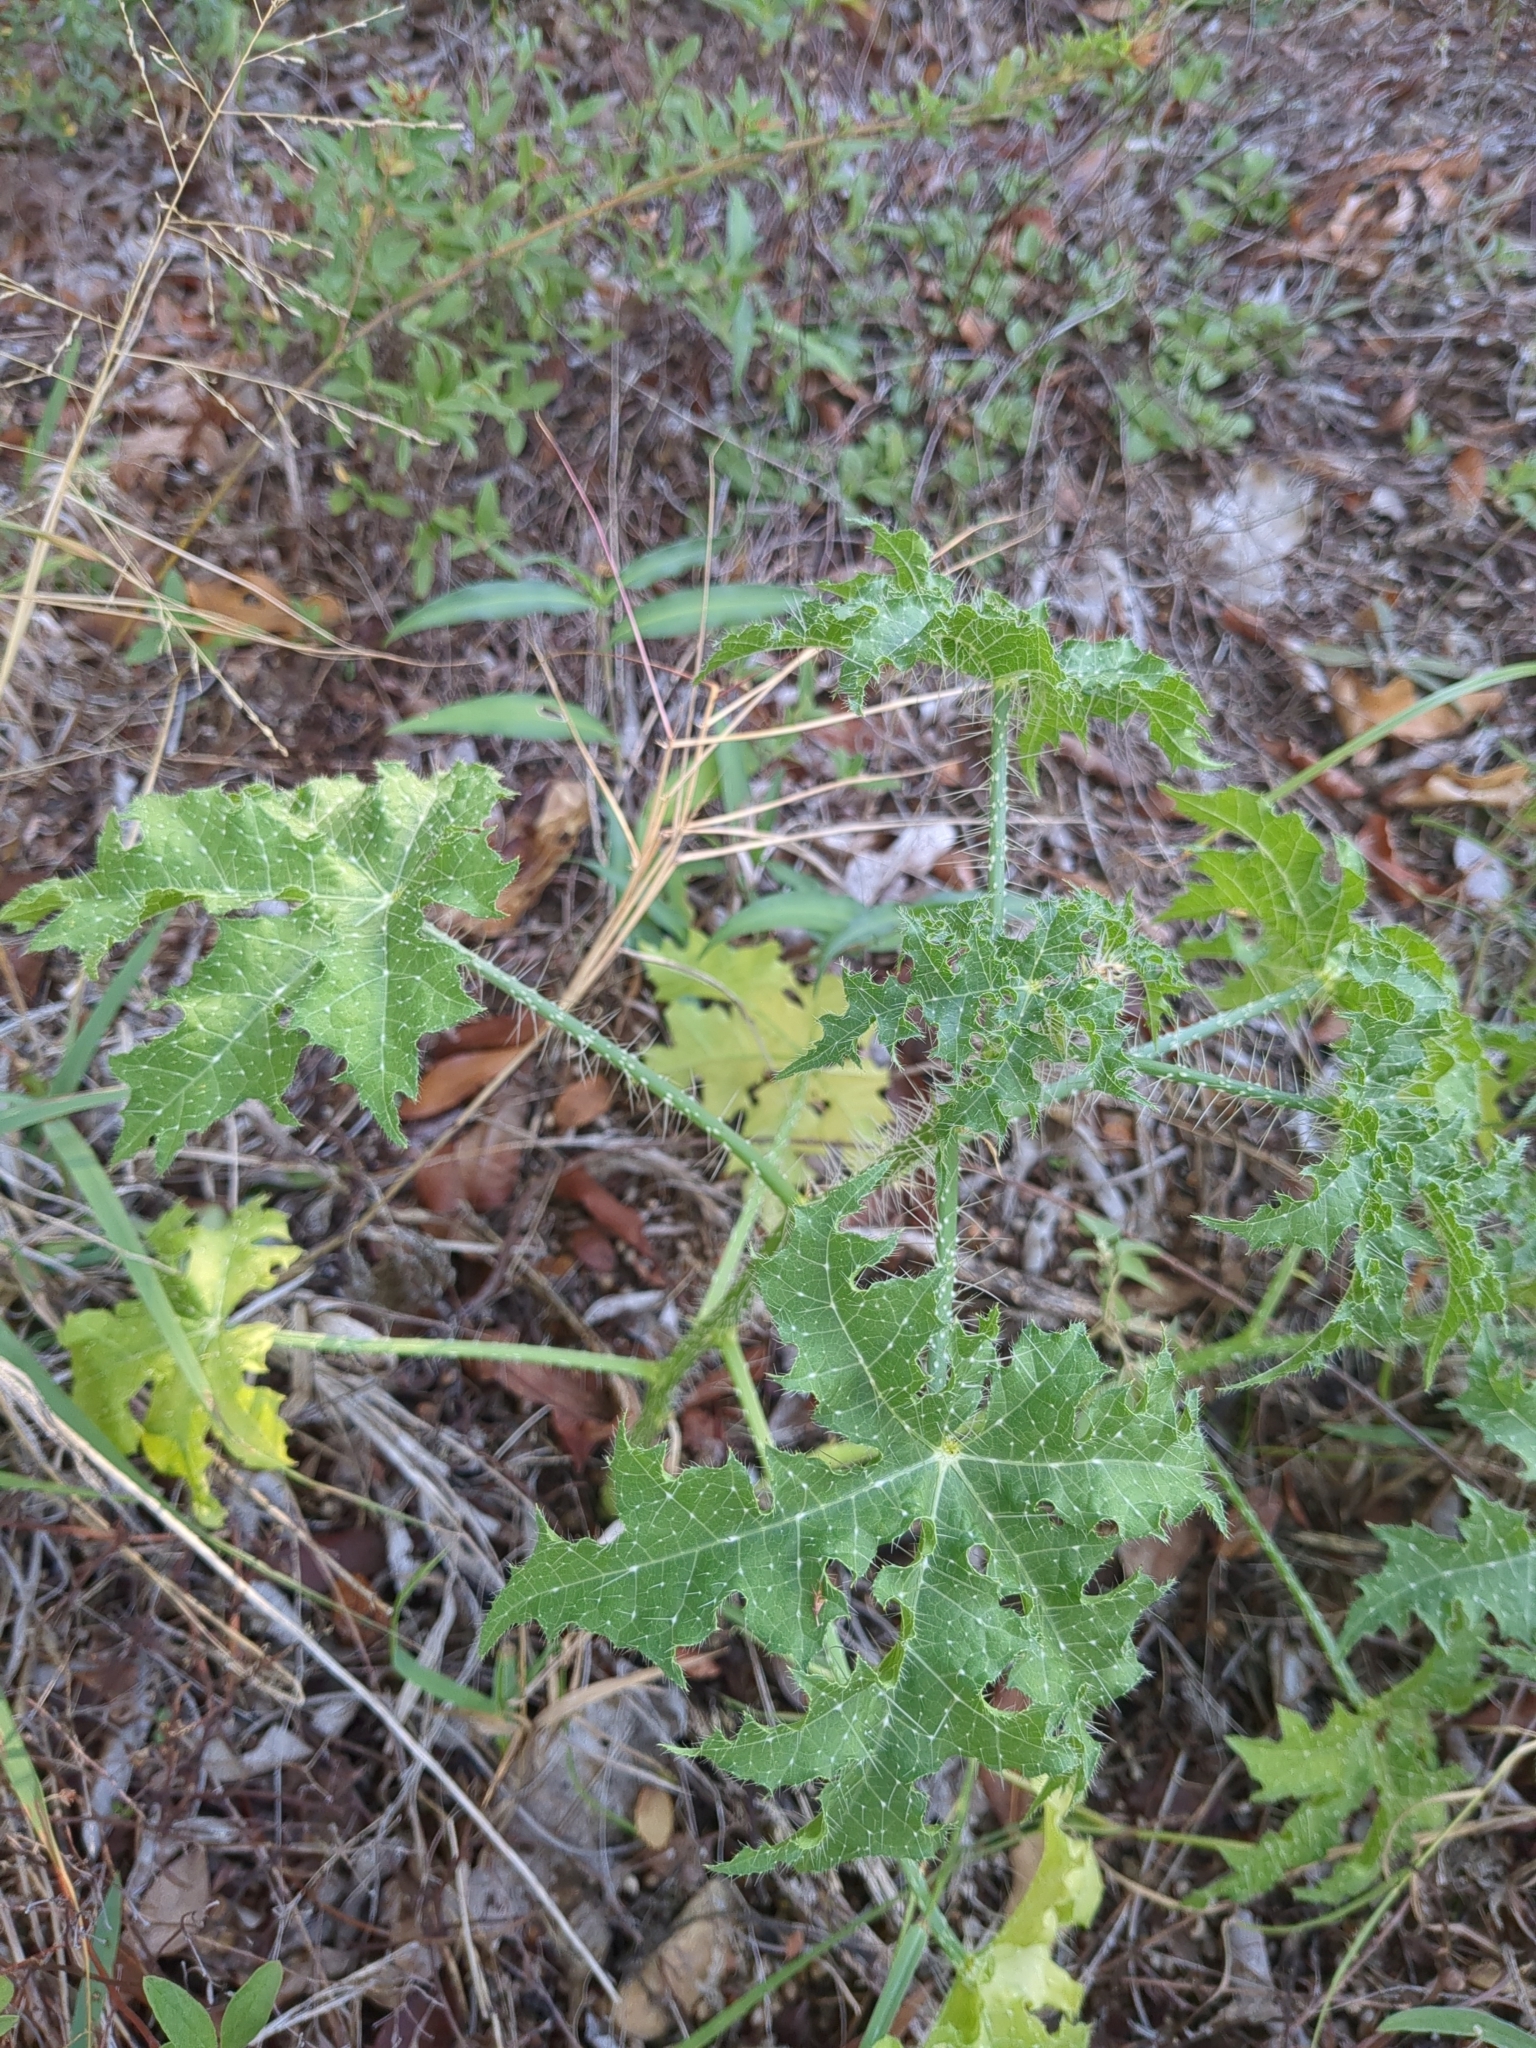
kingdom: Plantae
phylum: Tracheophyta
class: Magnoliopsida
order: Malpighiales
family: Euphorbiaceae
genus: Cnidoscolus
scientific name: Cnidoscolus texanus
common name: Texas bull-nettle
